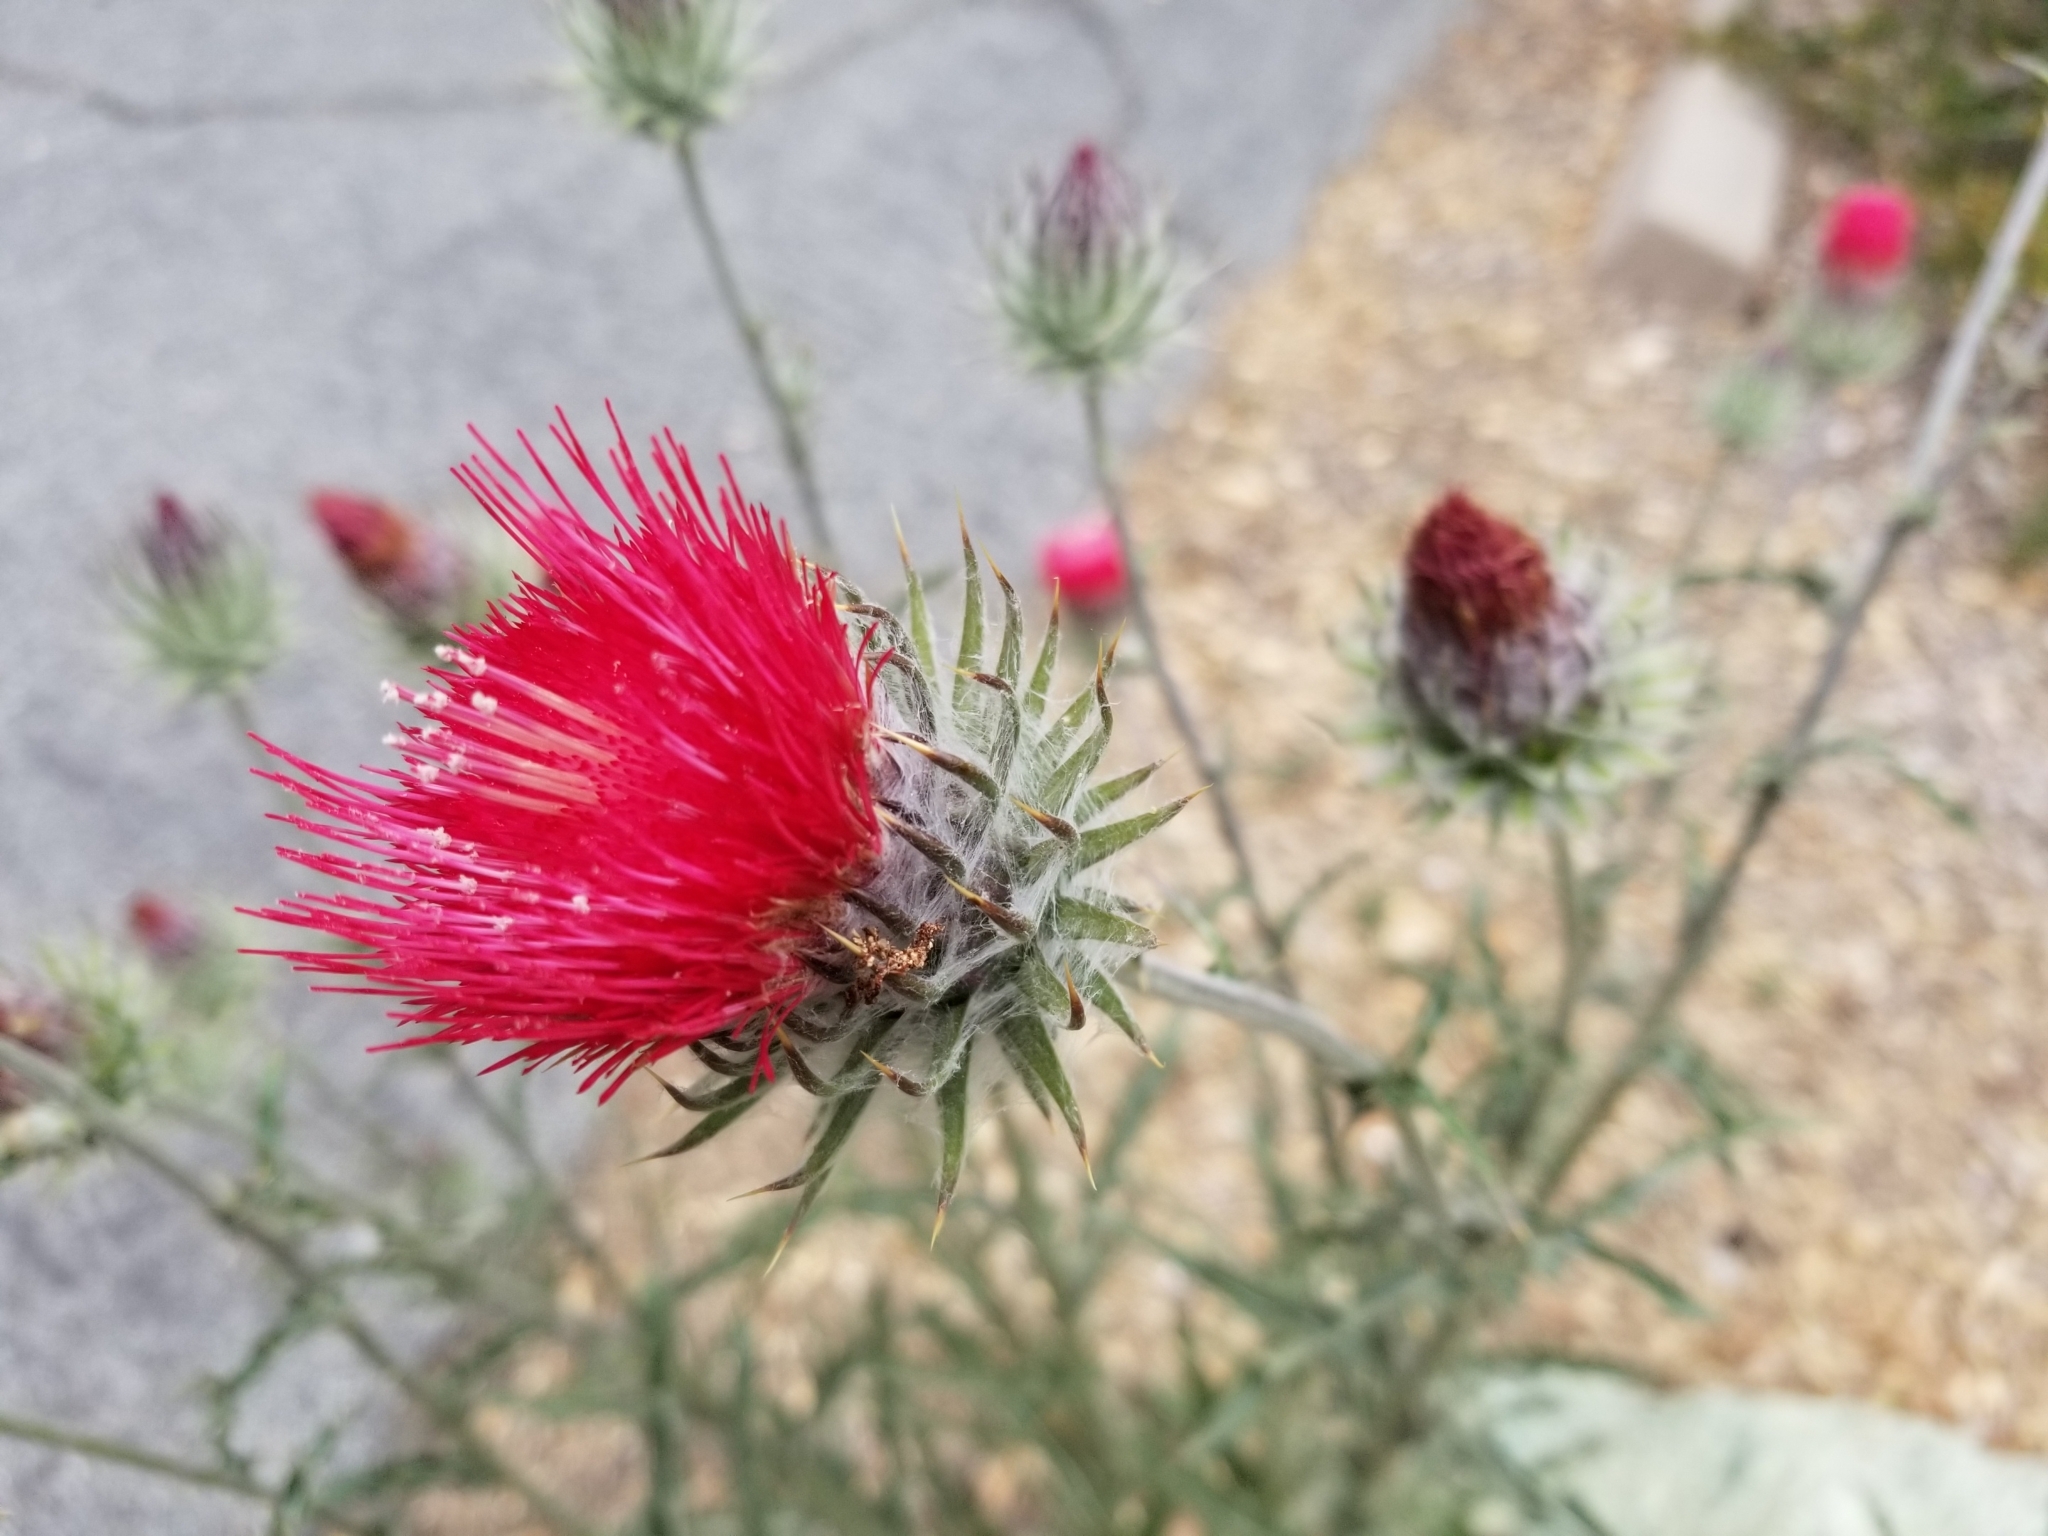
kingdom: Plantae
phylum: Tracheophyta
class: Magnoliopsida
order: Asterales
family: Asteraceae
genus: Cirsium
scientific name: Cirsium occidentale
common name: Western thistle
